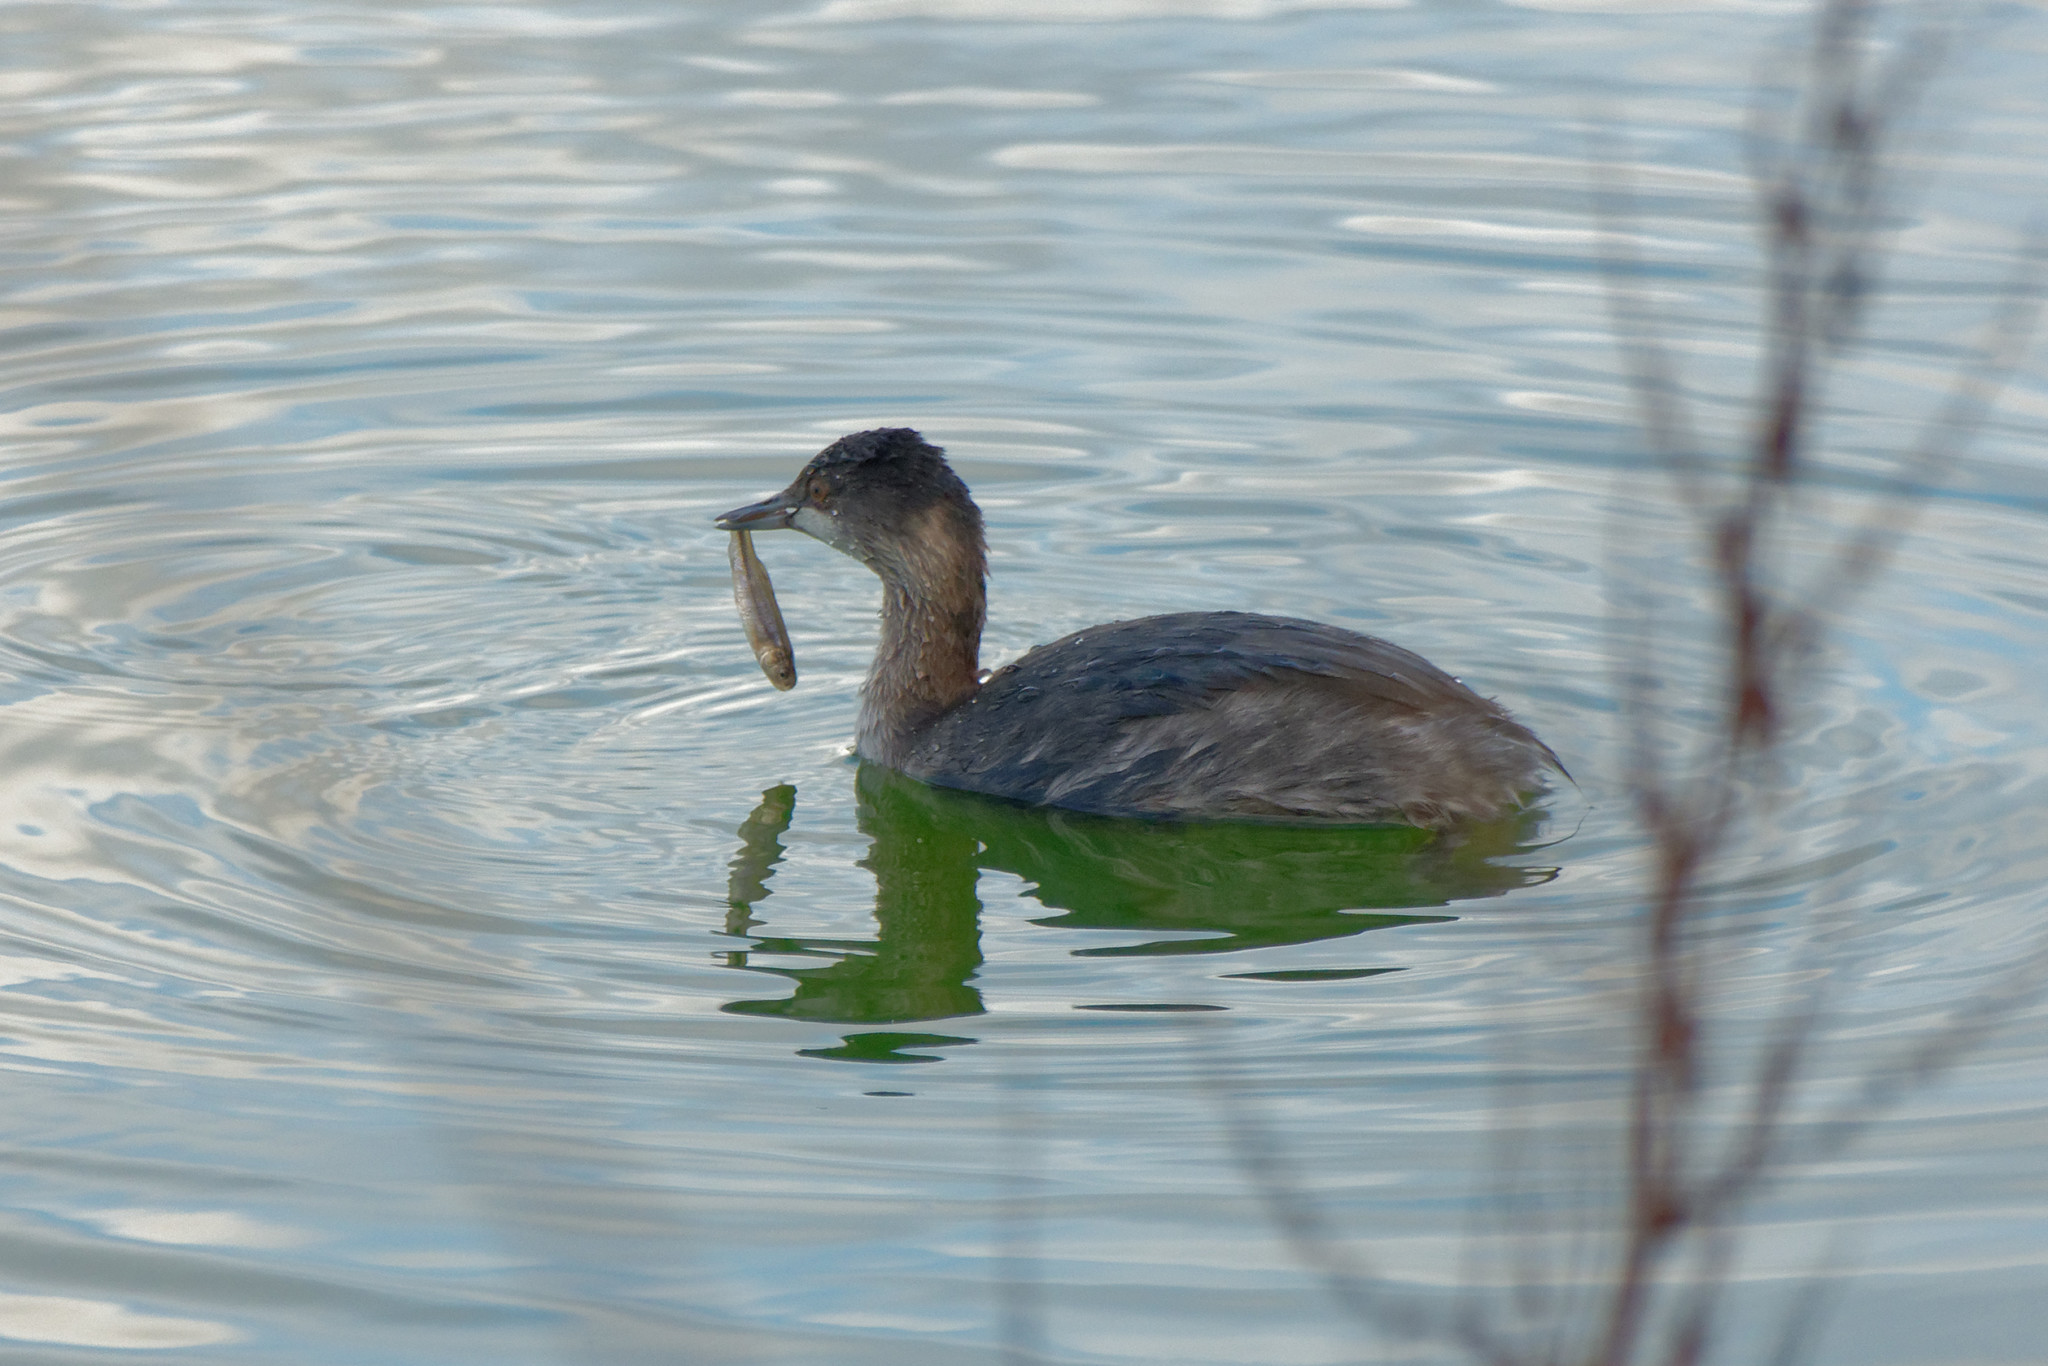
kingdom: Animalia
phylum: Chordata
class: Aves
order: Podicipediformes
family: Podicipedidae
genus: Podiceps
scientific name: Podiceps nigricollis
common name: Black-necked grebe
